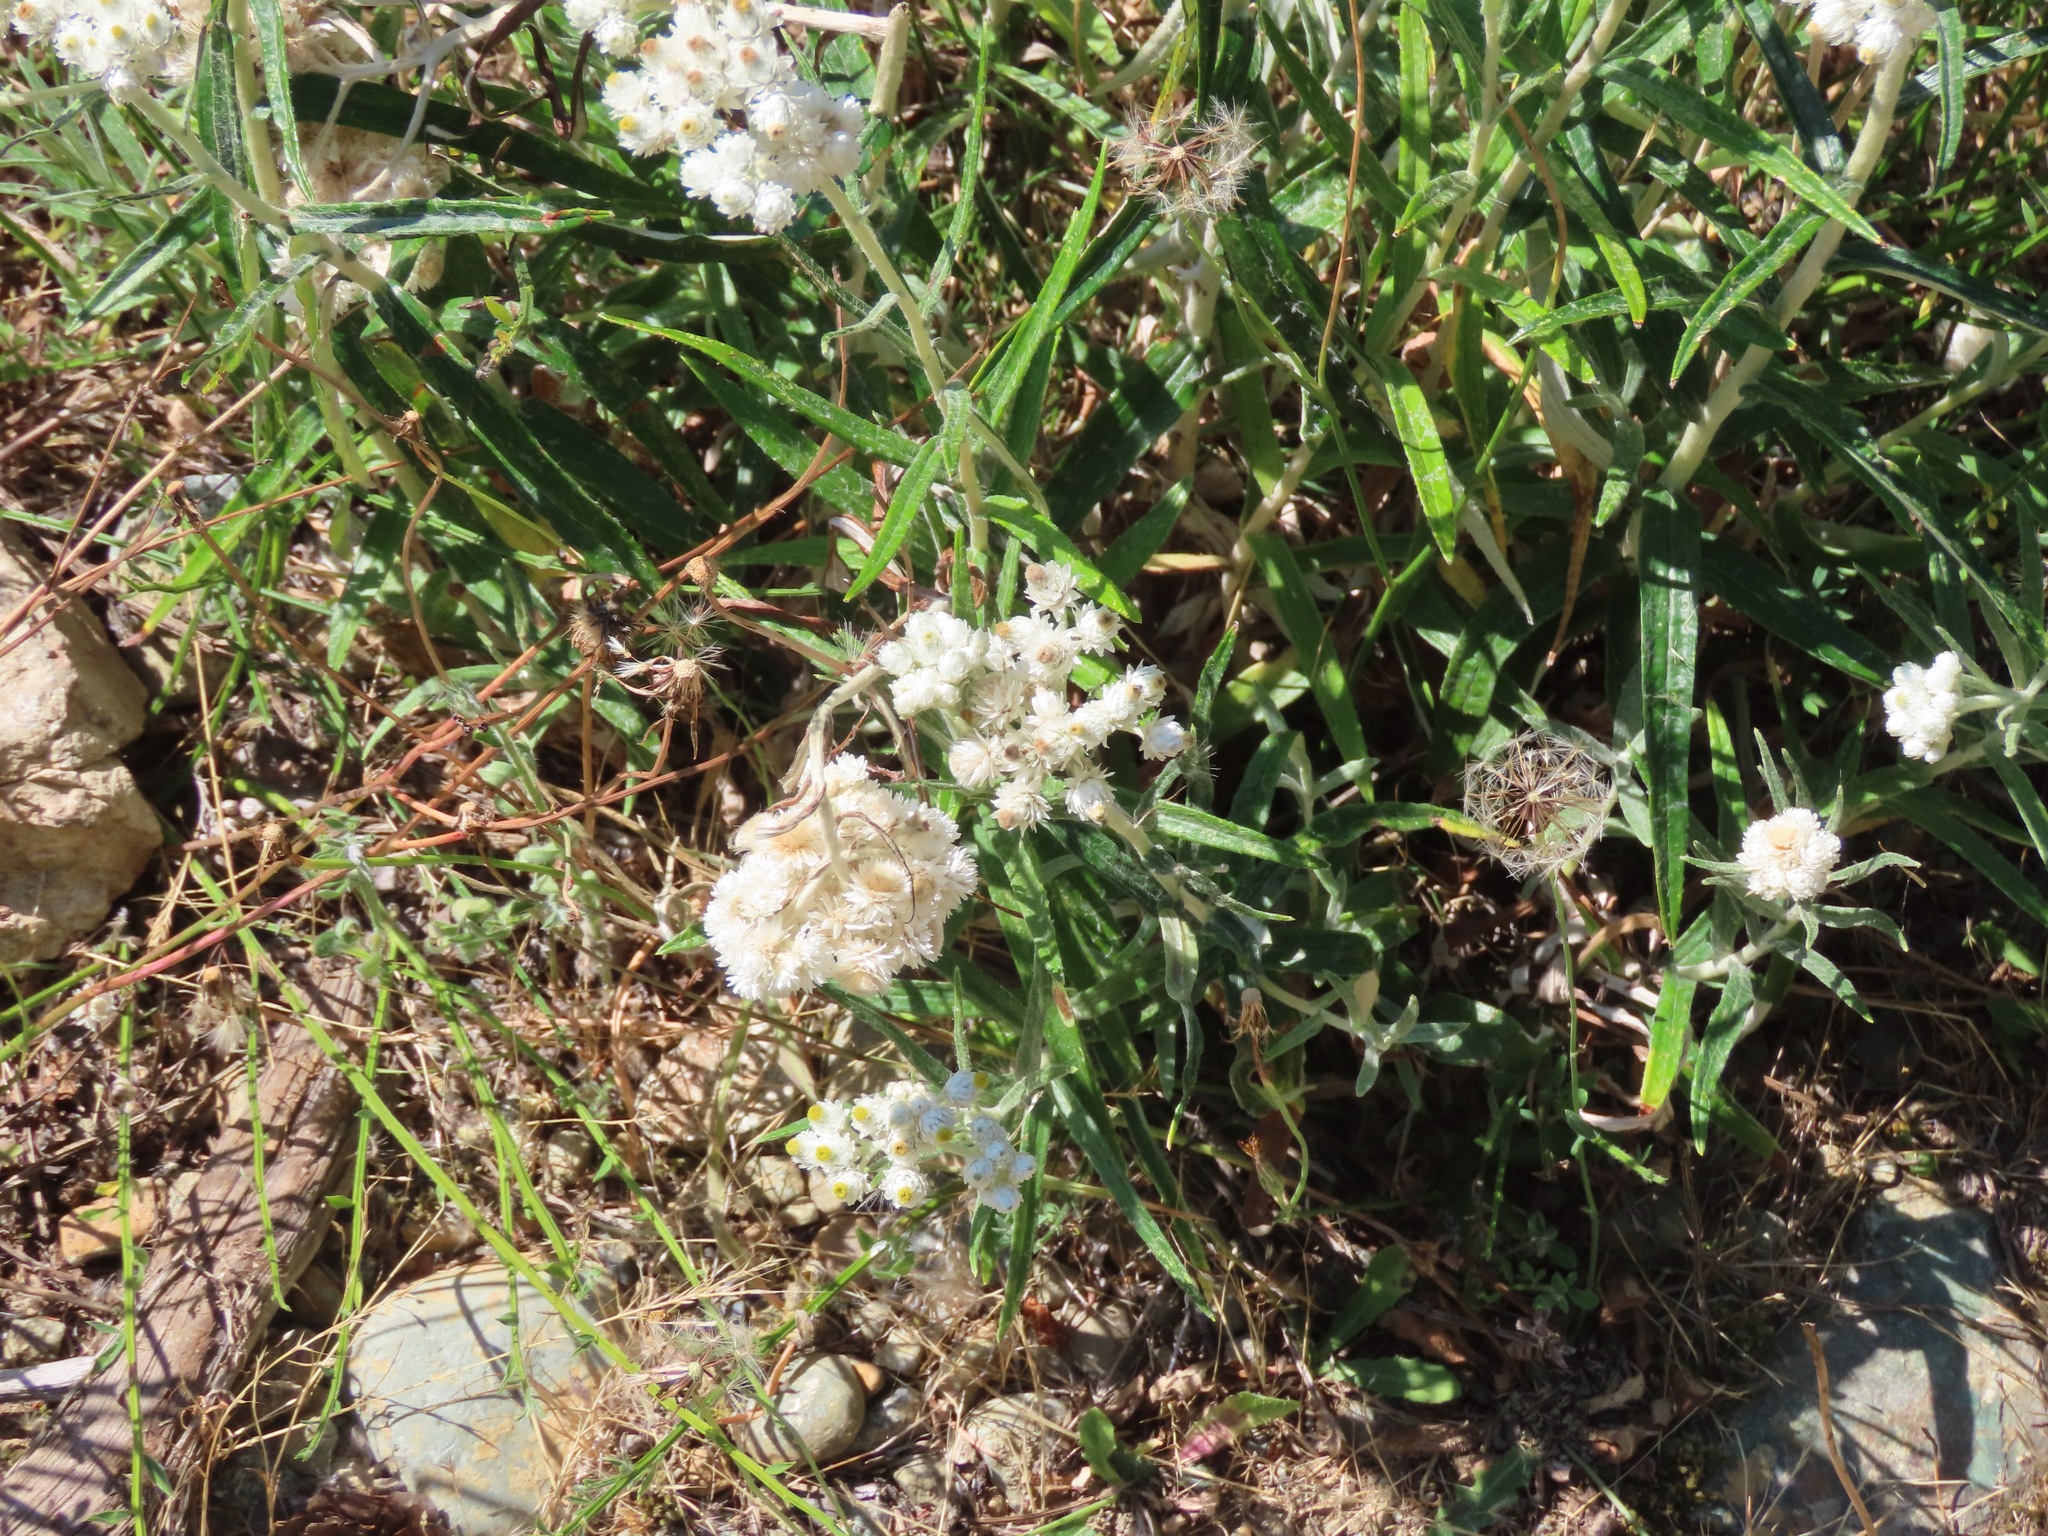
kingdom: Plantae
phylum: Tracheophyta
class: Magnoliopsida
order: Asterales
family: Asteraceae
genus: Anaphalis
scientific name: Anaphalis margaritacea
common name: Pearly everlasting
